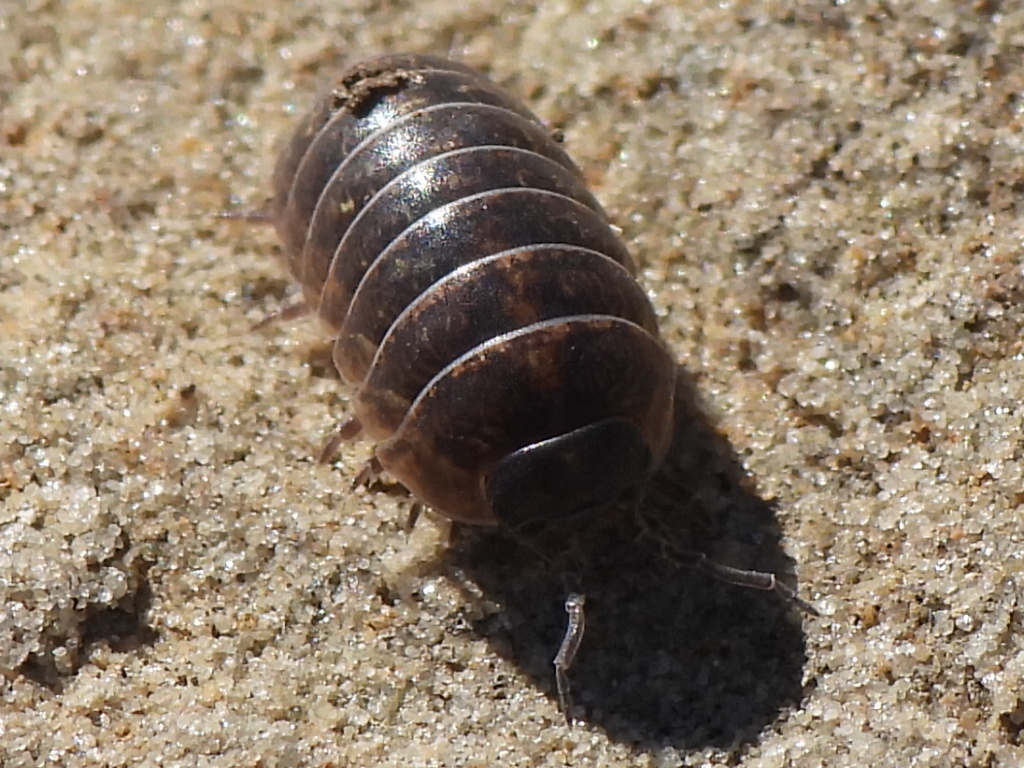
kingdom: Animalia
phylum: Arthropoda
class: Malacostraca
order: Isopoda
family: Armadillidiidae
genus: Armadillidium
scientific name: Armadillidium vulgare
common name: Common pill woodlouse
